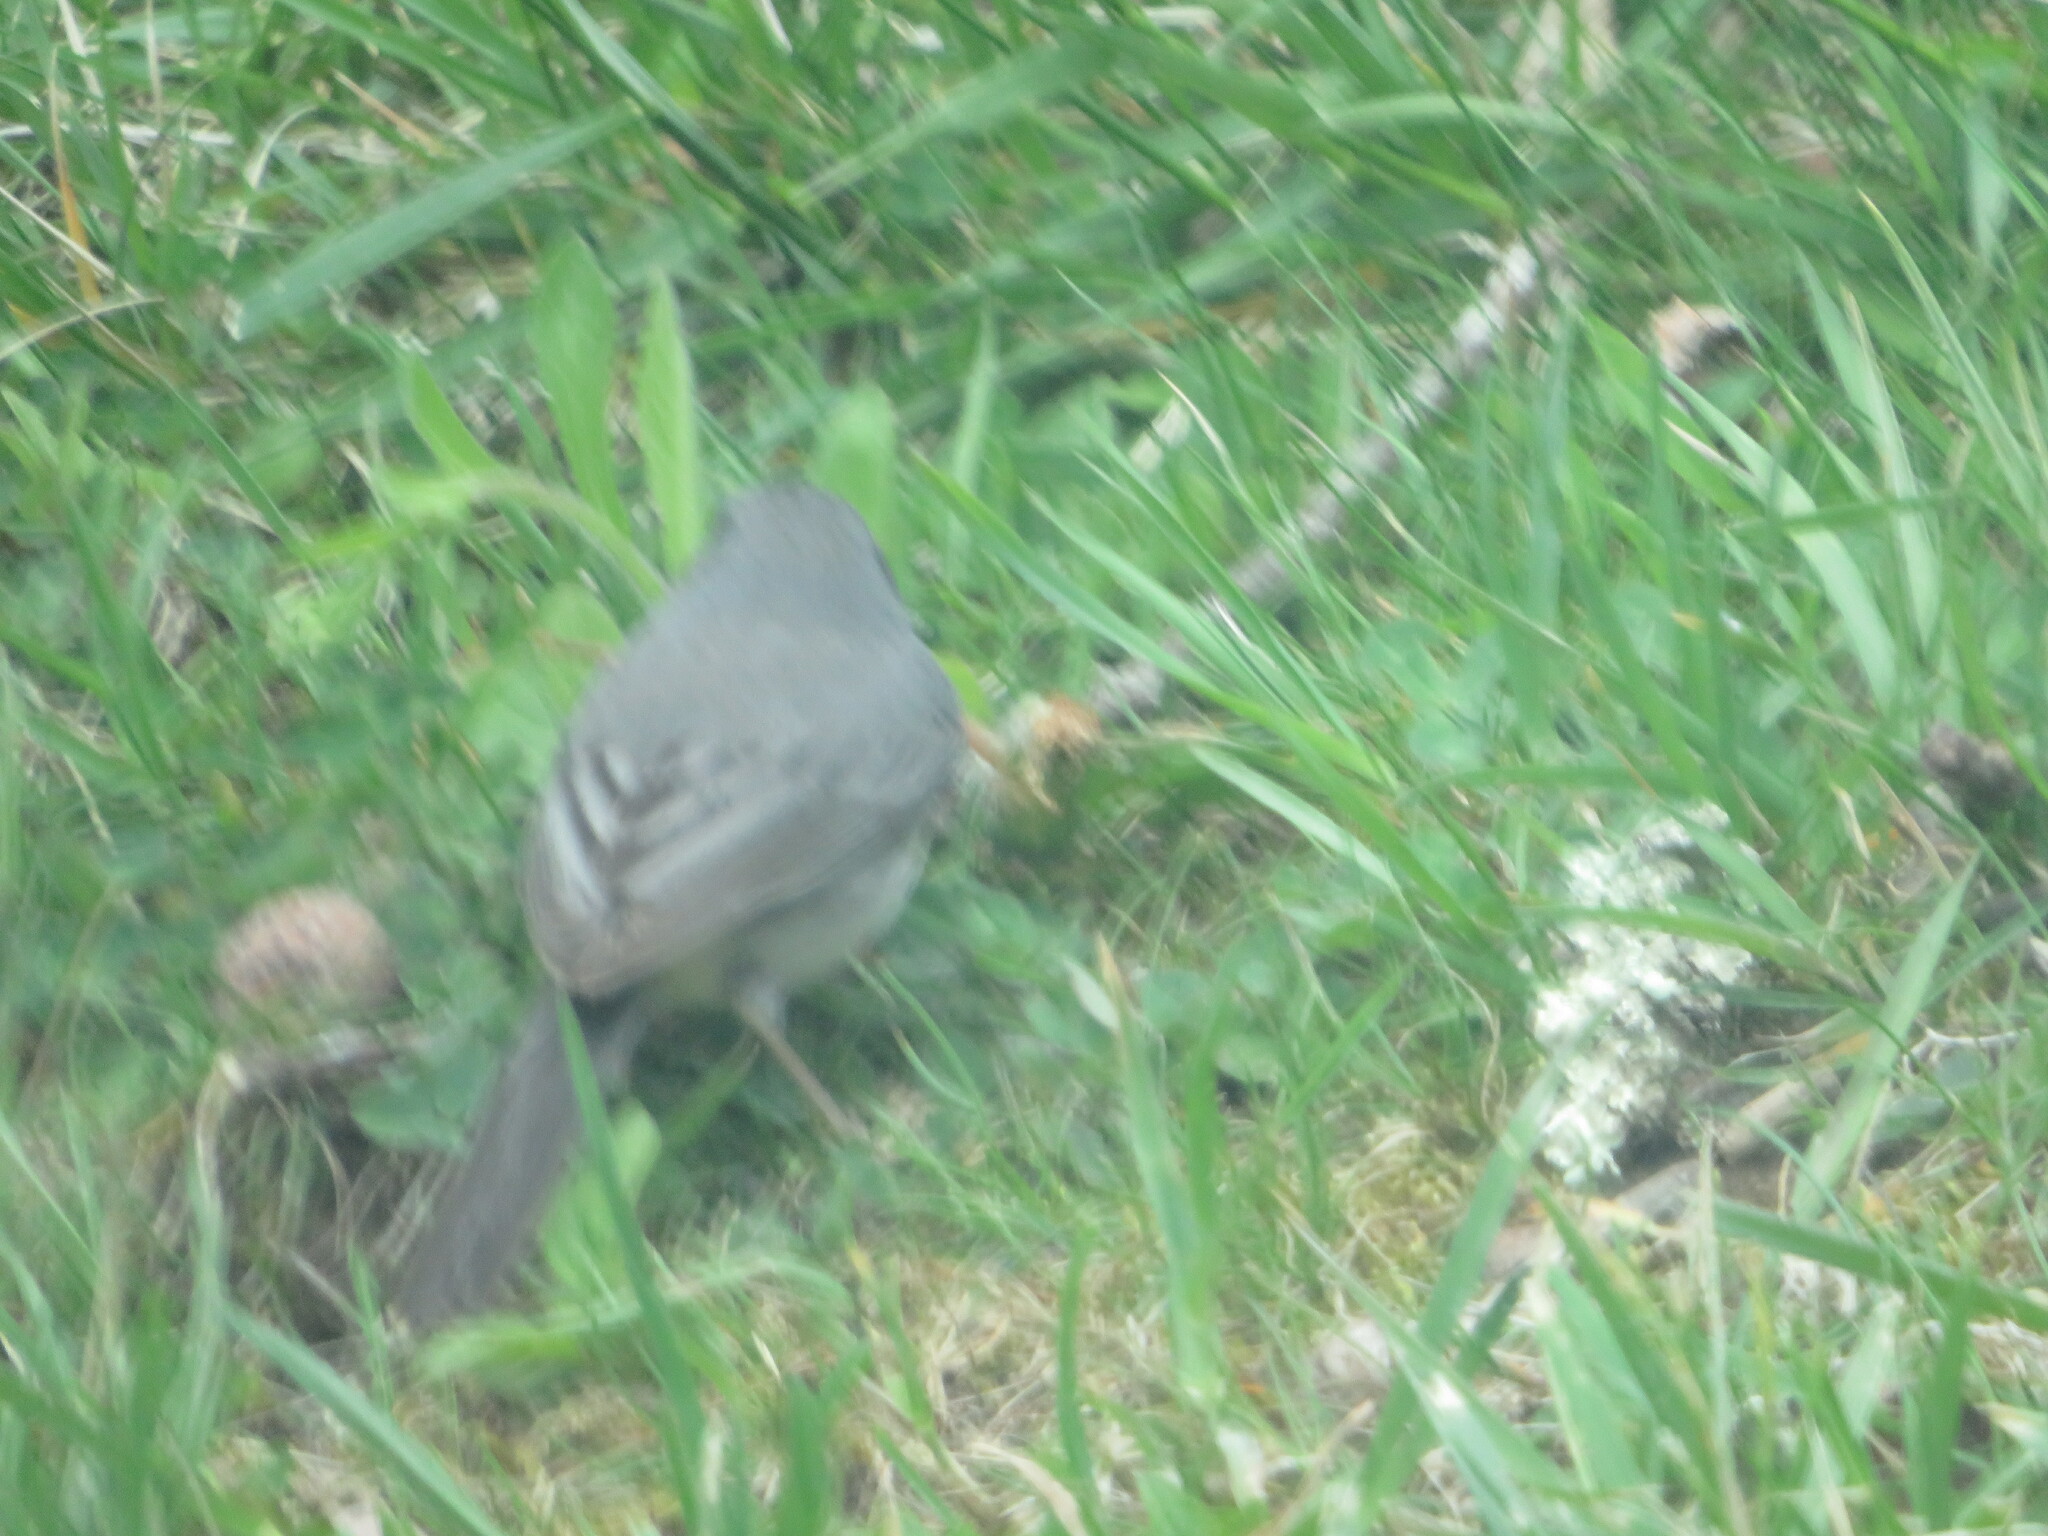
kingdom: Animalia
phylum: Chordata
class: Aves
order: Passeriformes
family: Passerellidae
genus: Junco
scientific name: Junco hyemalis
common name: Dark-eyed junco
